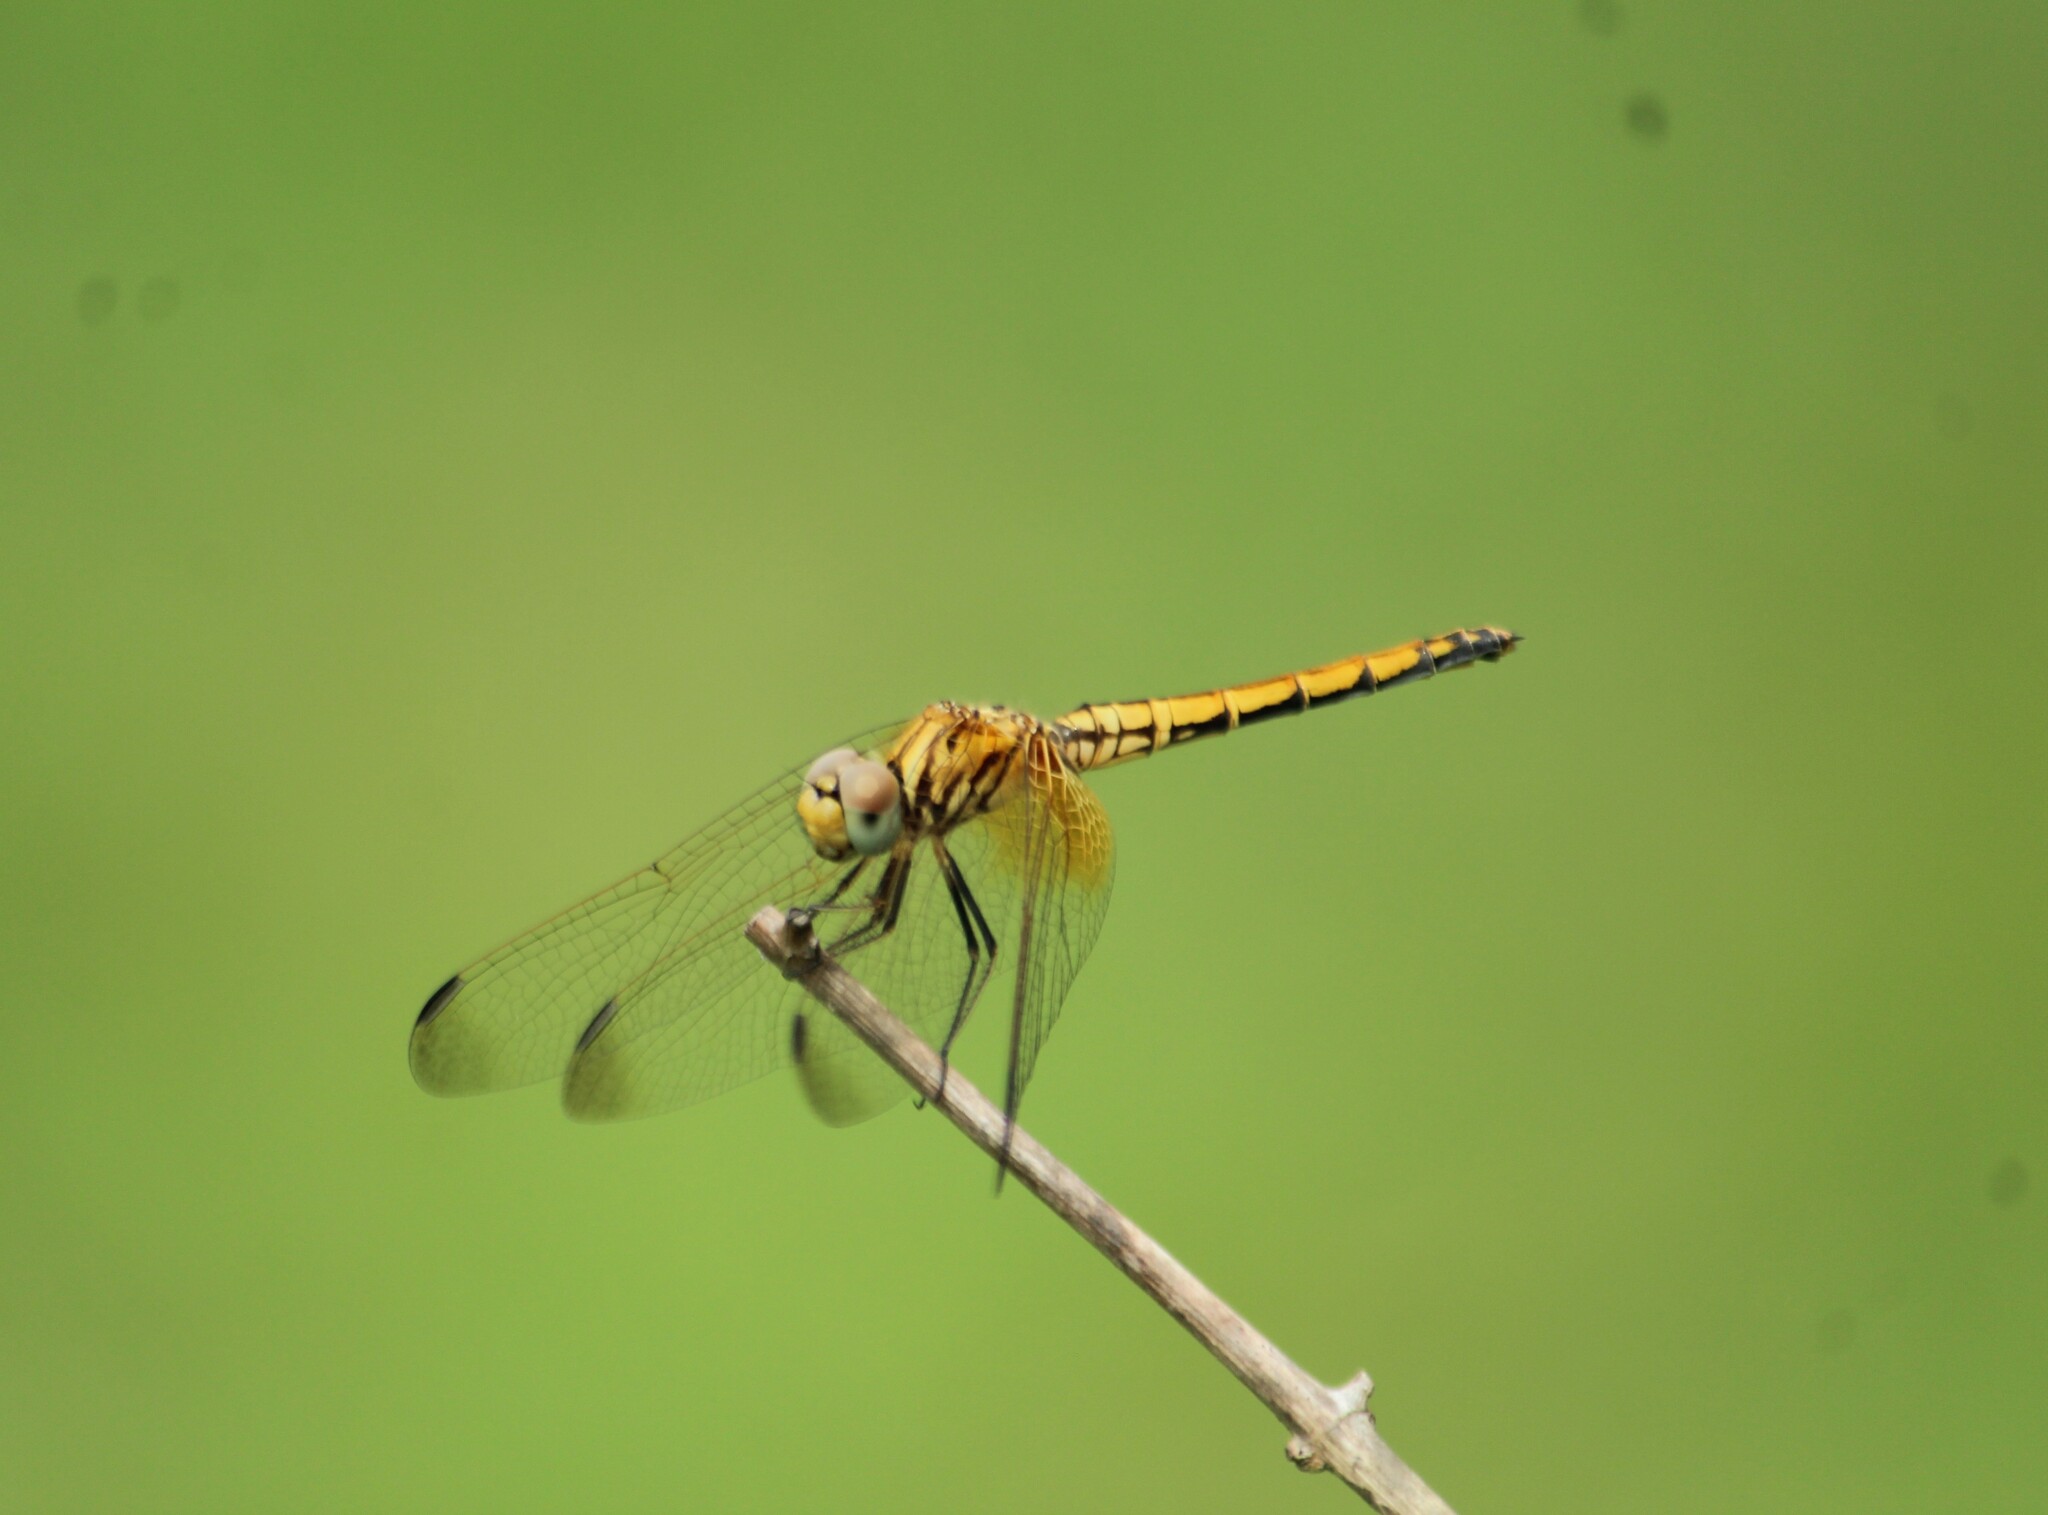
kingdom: Animalia
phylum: Arthropoda
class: Insecta
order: Odonata
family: Libellulidae
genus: Trithemis
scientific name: Trithemis aurora
